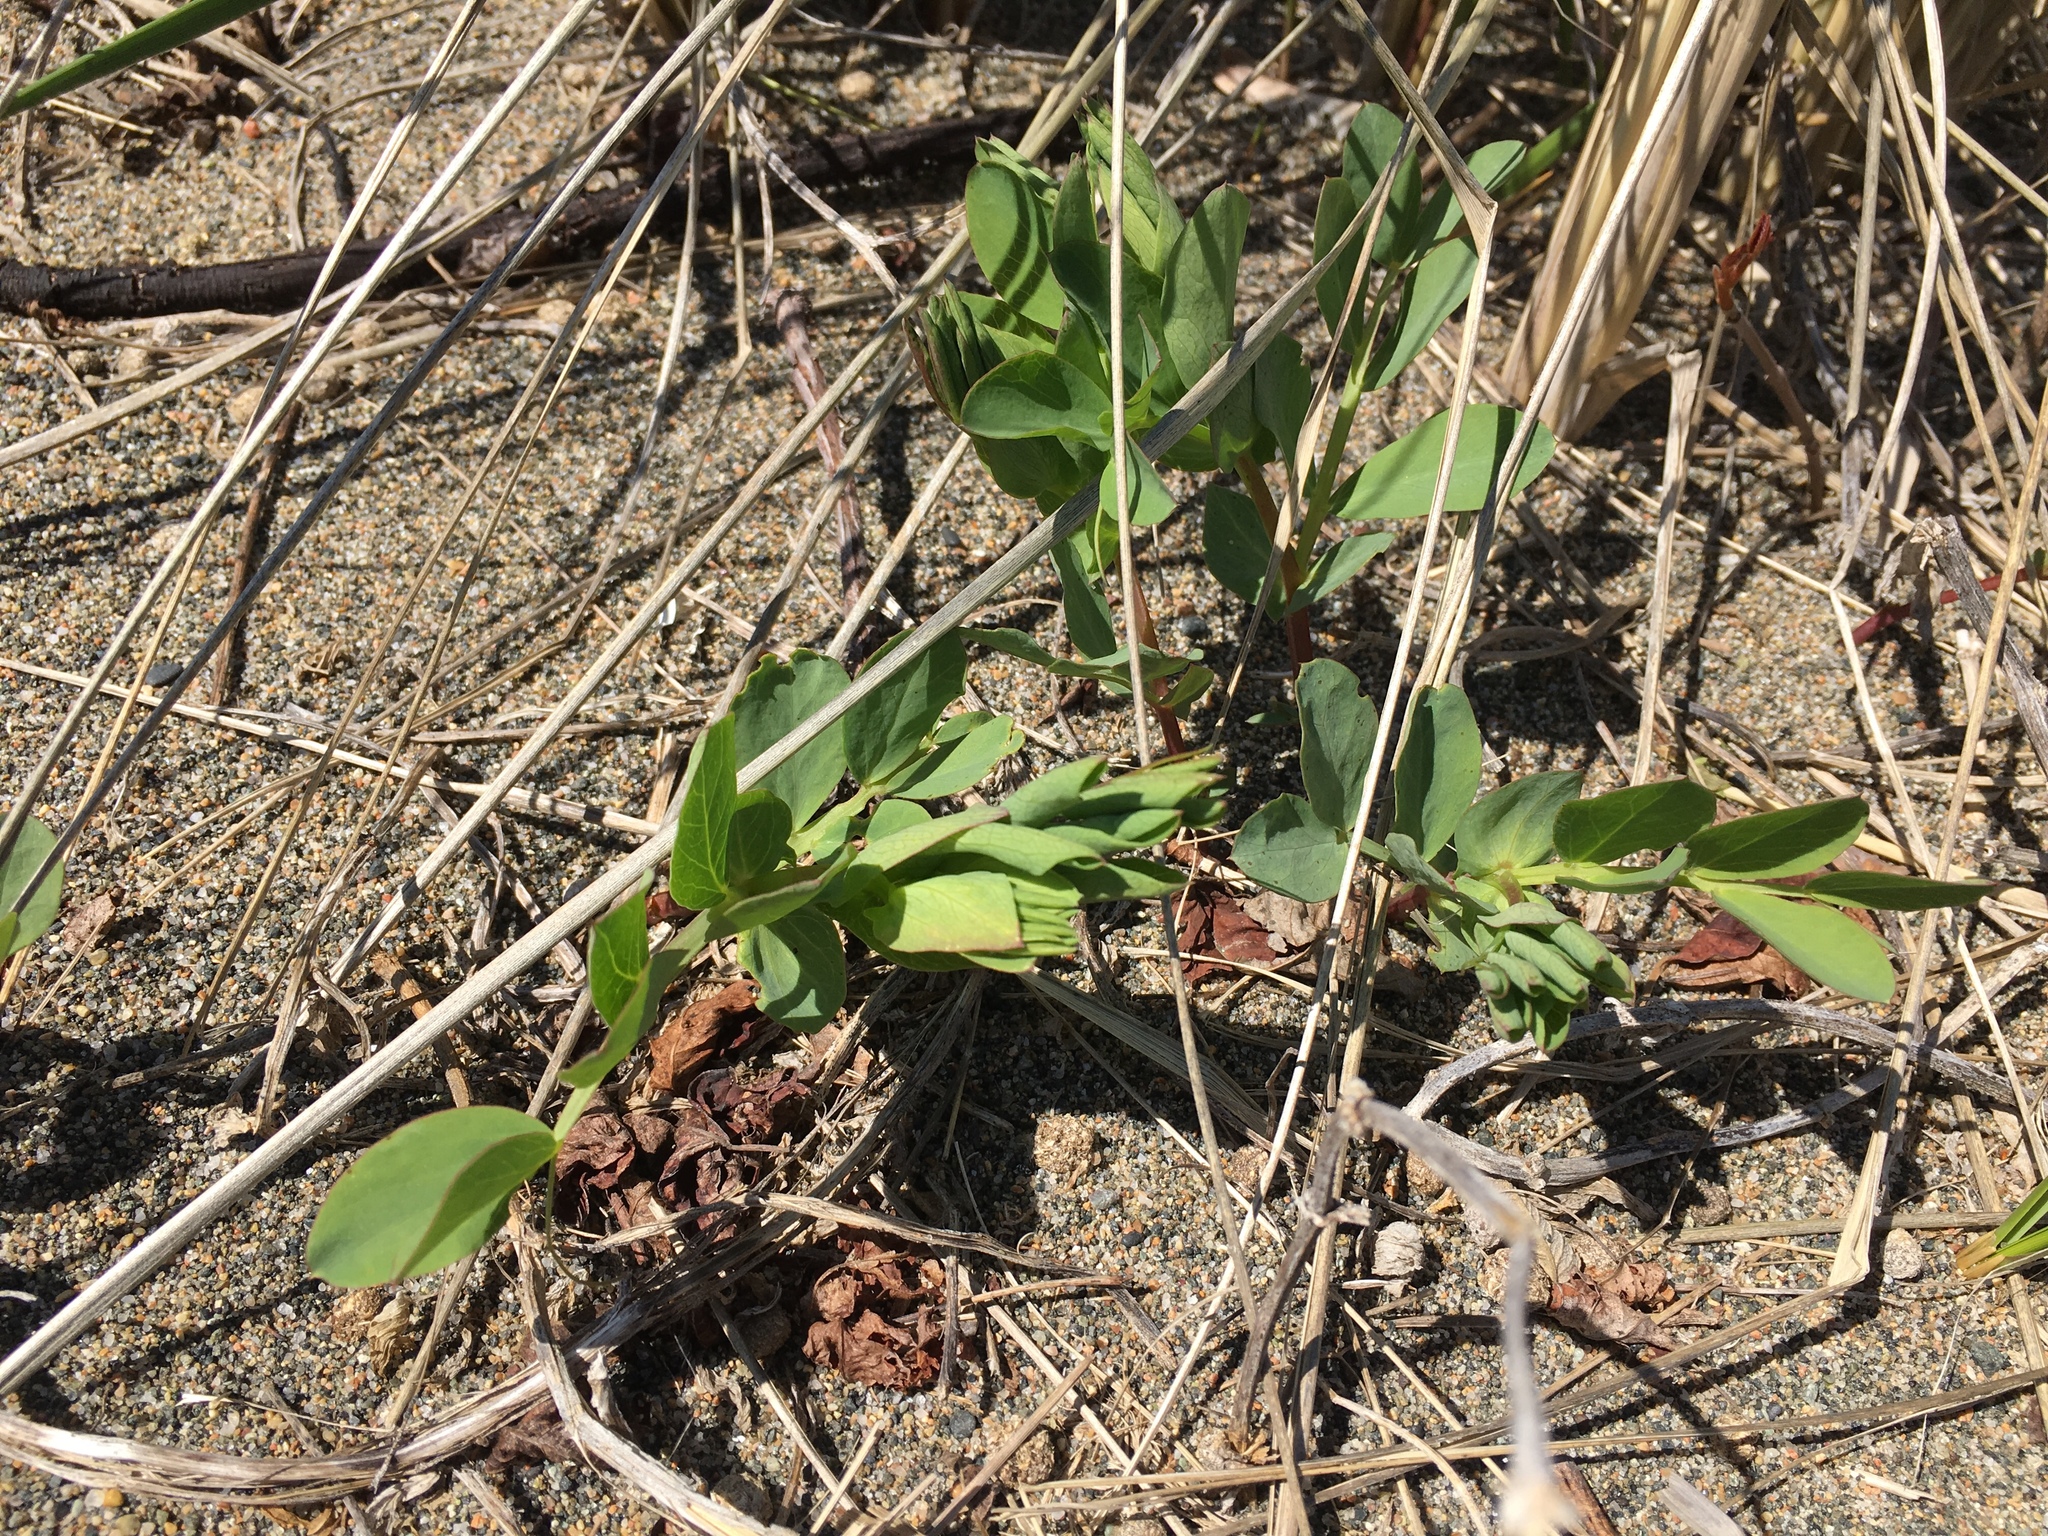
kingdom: Plantae
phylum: Tracheophyta
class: Magnoliopsida
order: Fabales
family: Fabaceae
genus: Lathyrus
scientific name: Lathyrus japonicus
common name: Sea pea
